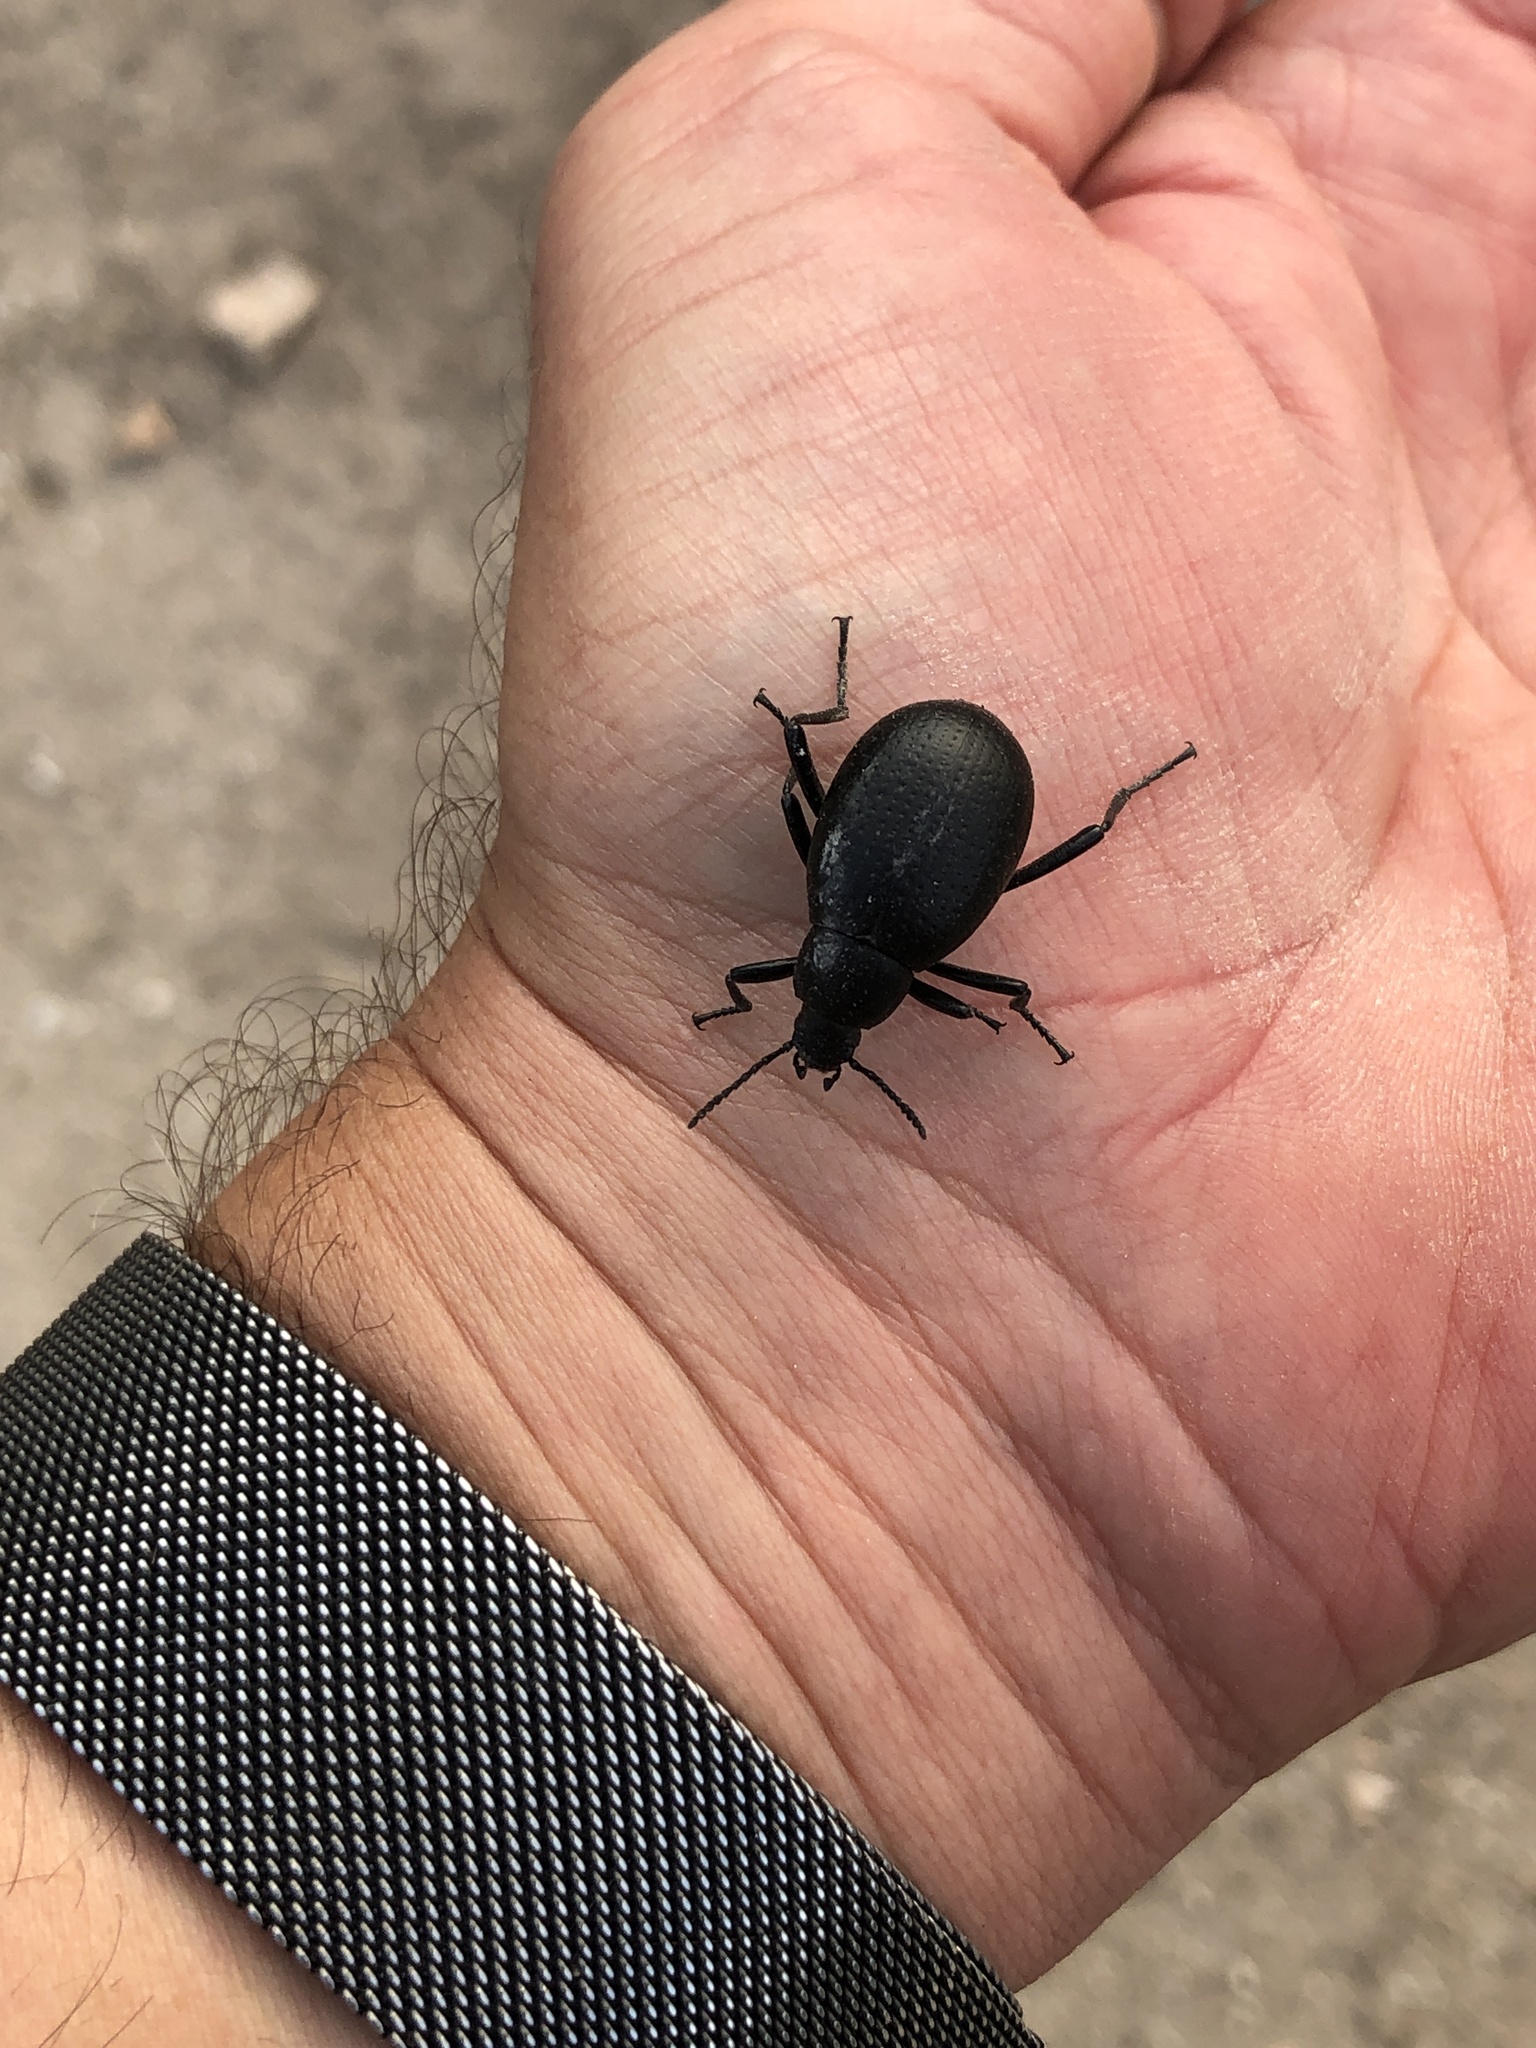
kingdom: Animalia
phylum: Arthropoda
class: Insecta
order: Coleoptera
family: Tenebrionidae
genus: Eleodes
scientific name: Eleodes goryi
